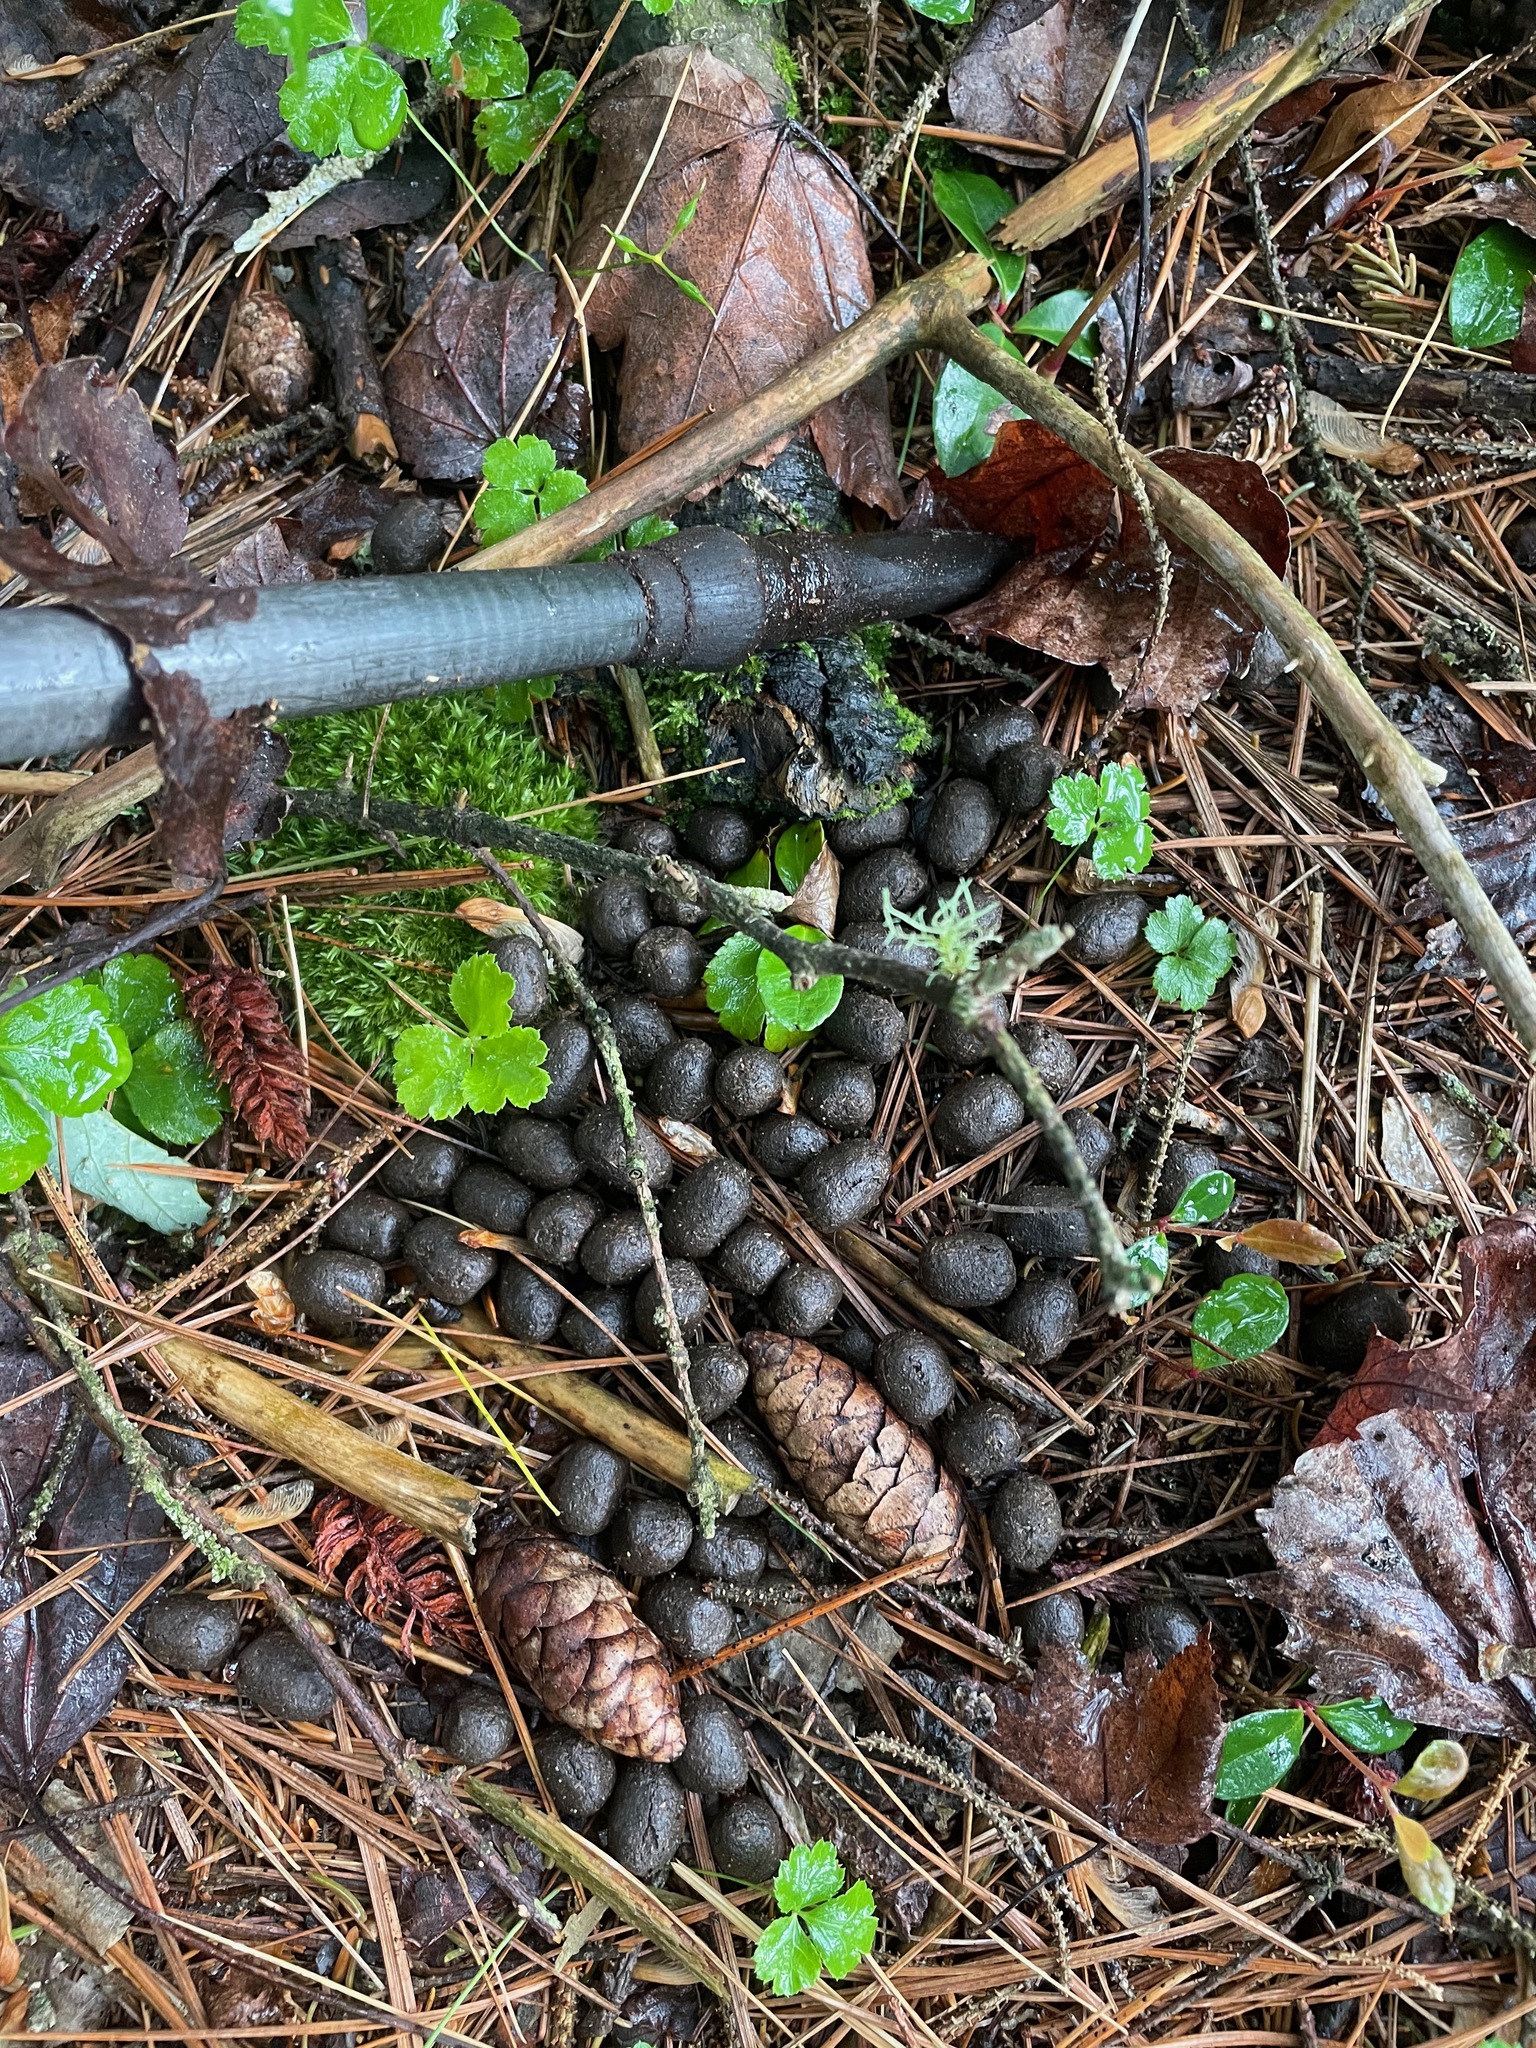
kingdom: Animalia
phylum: Chordata
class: Mammalia
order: Artiodactyla
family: Cervidae
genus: Odocoileus
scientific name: Odocoileus virginianus
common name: White-tailed deer
